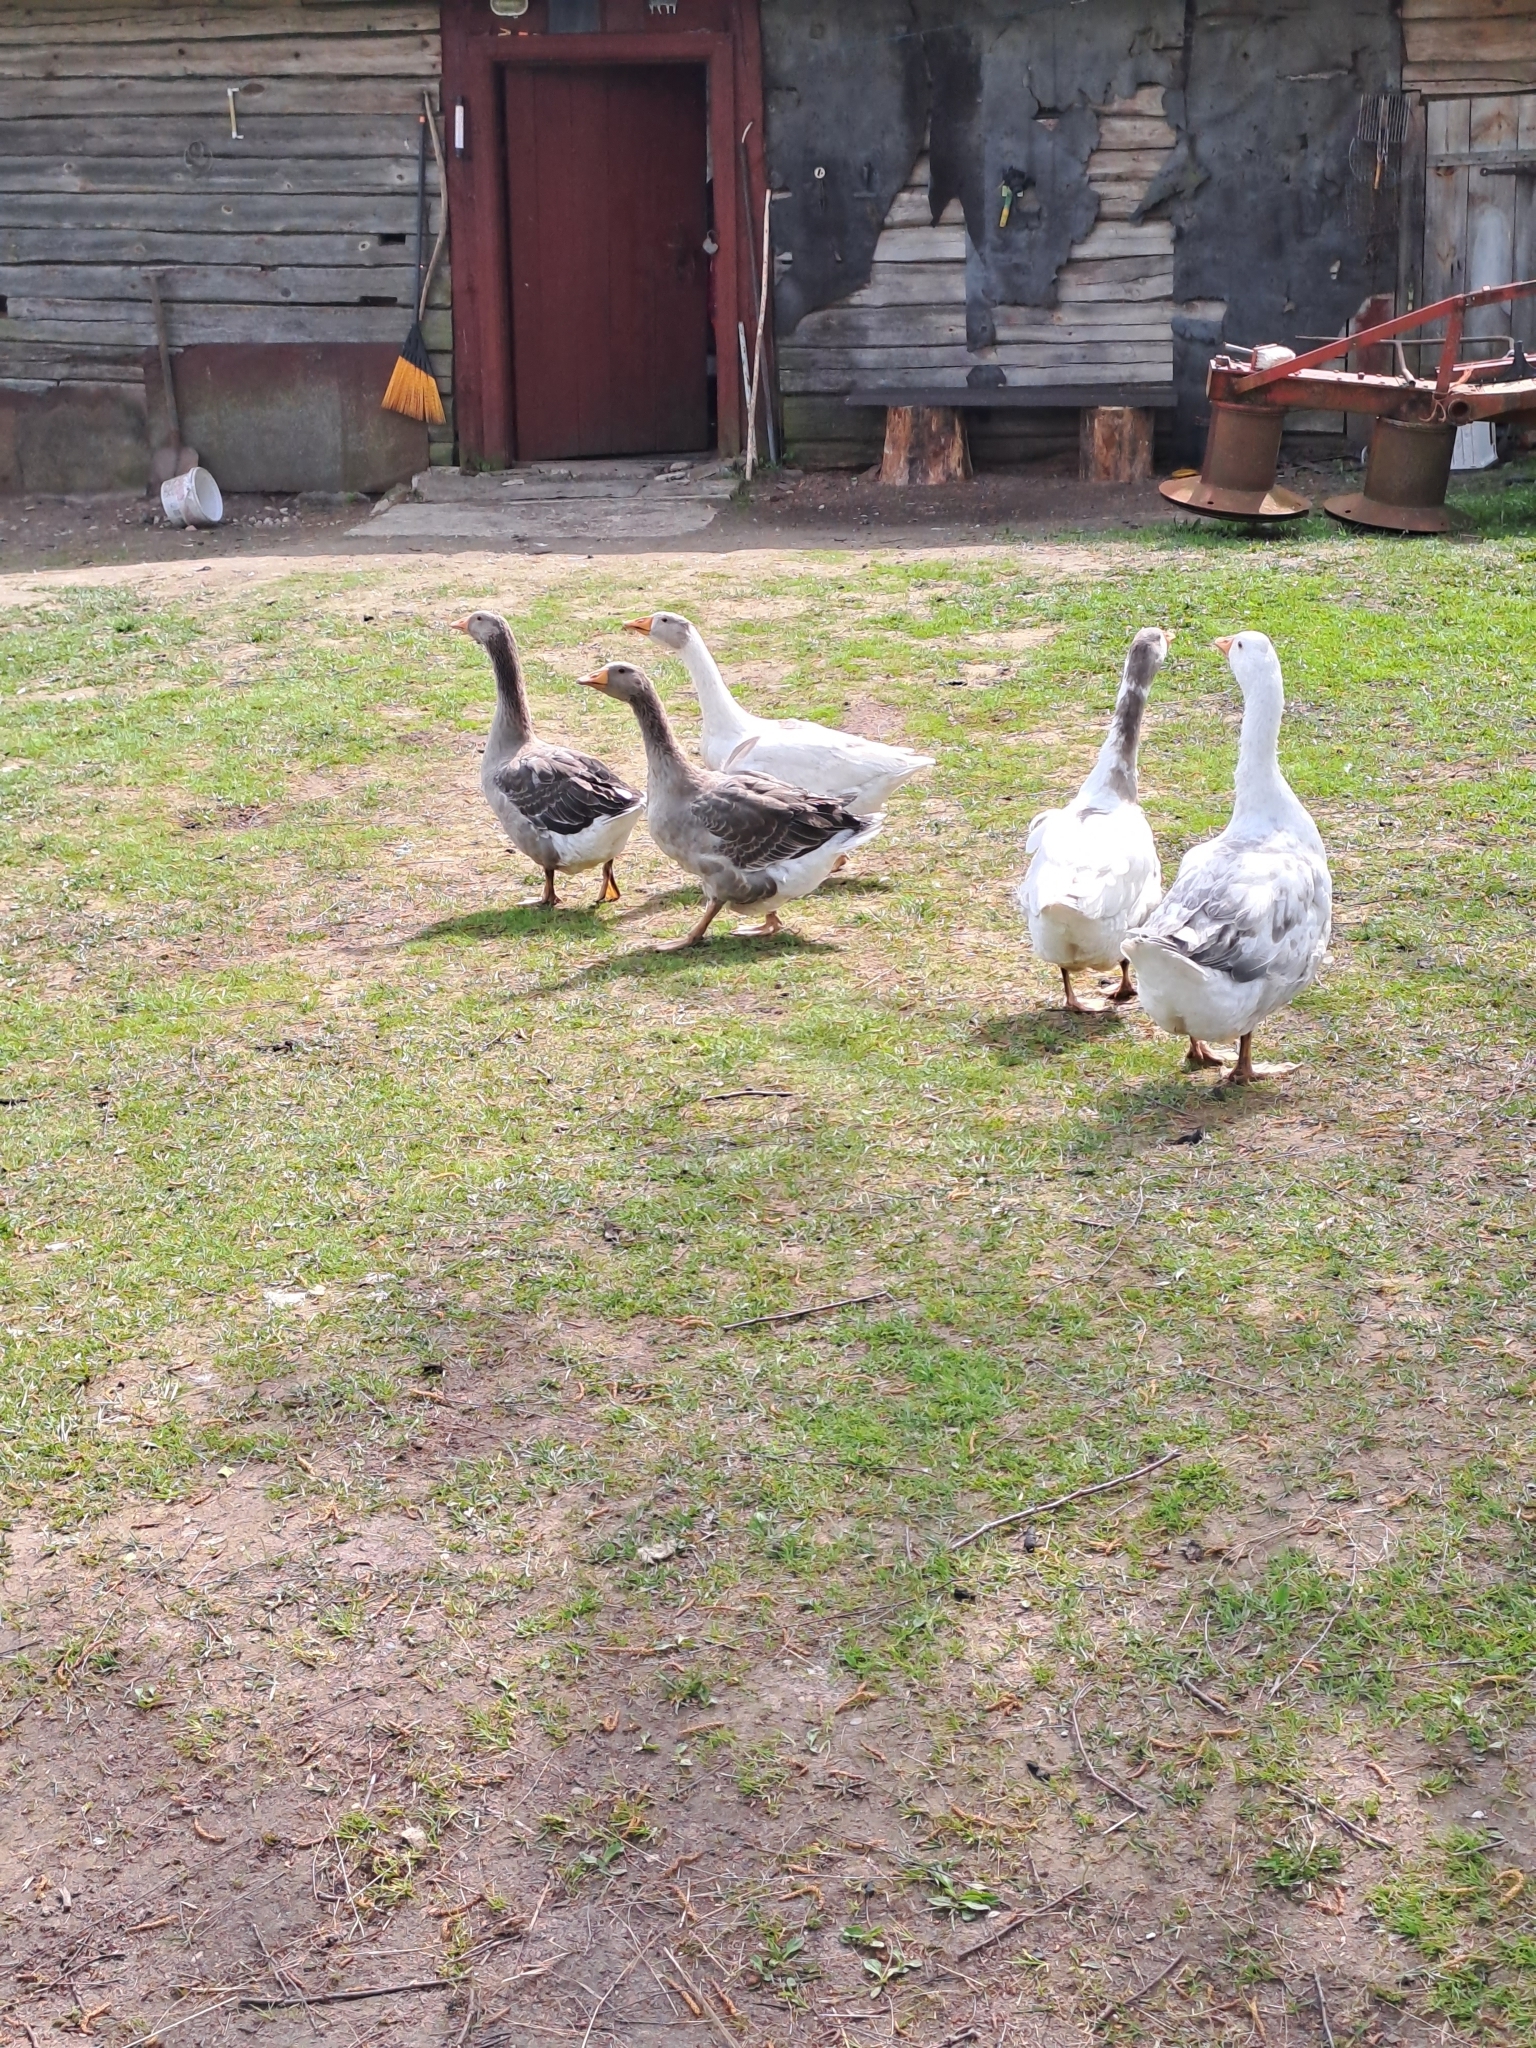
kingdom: Animalia
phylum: Chordata
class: Aves
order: Anseriformes
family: Anatidae
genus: Anser
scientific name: Anser anser
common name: Greylag goose
